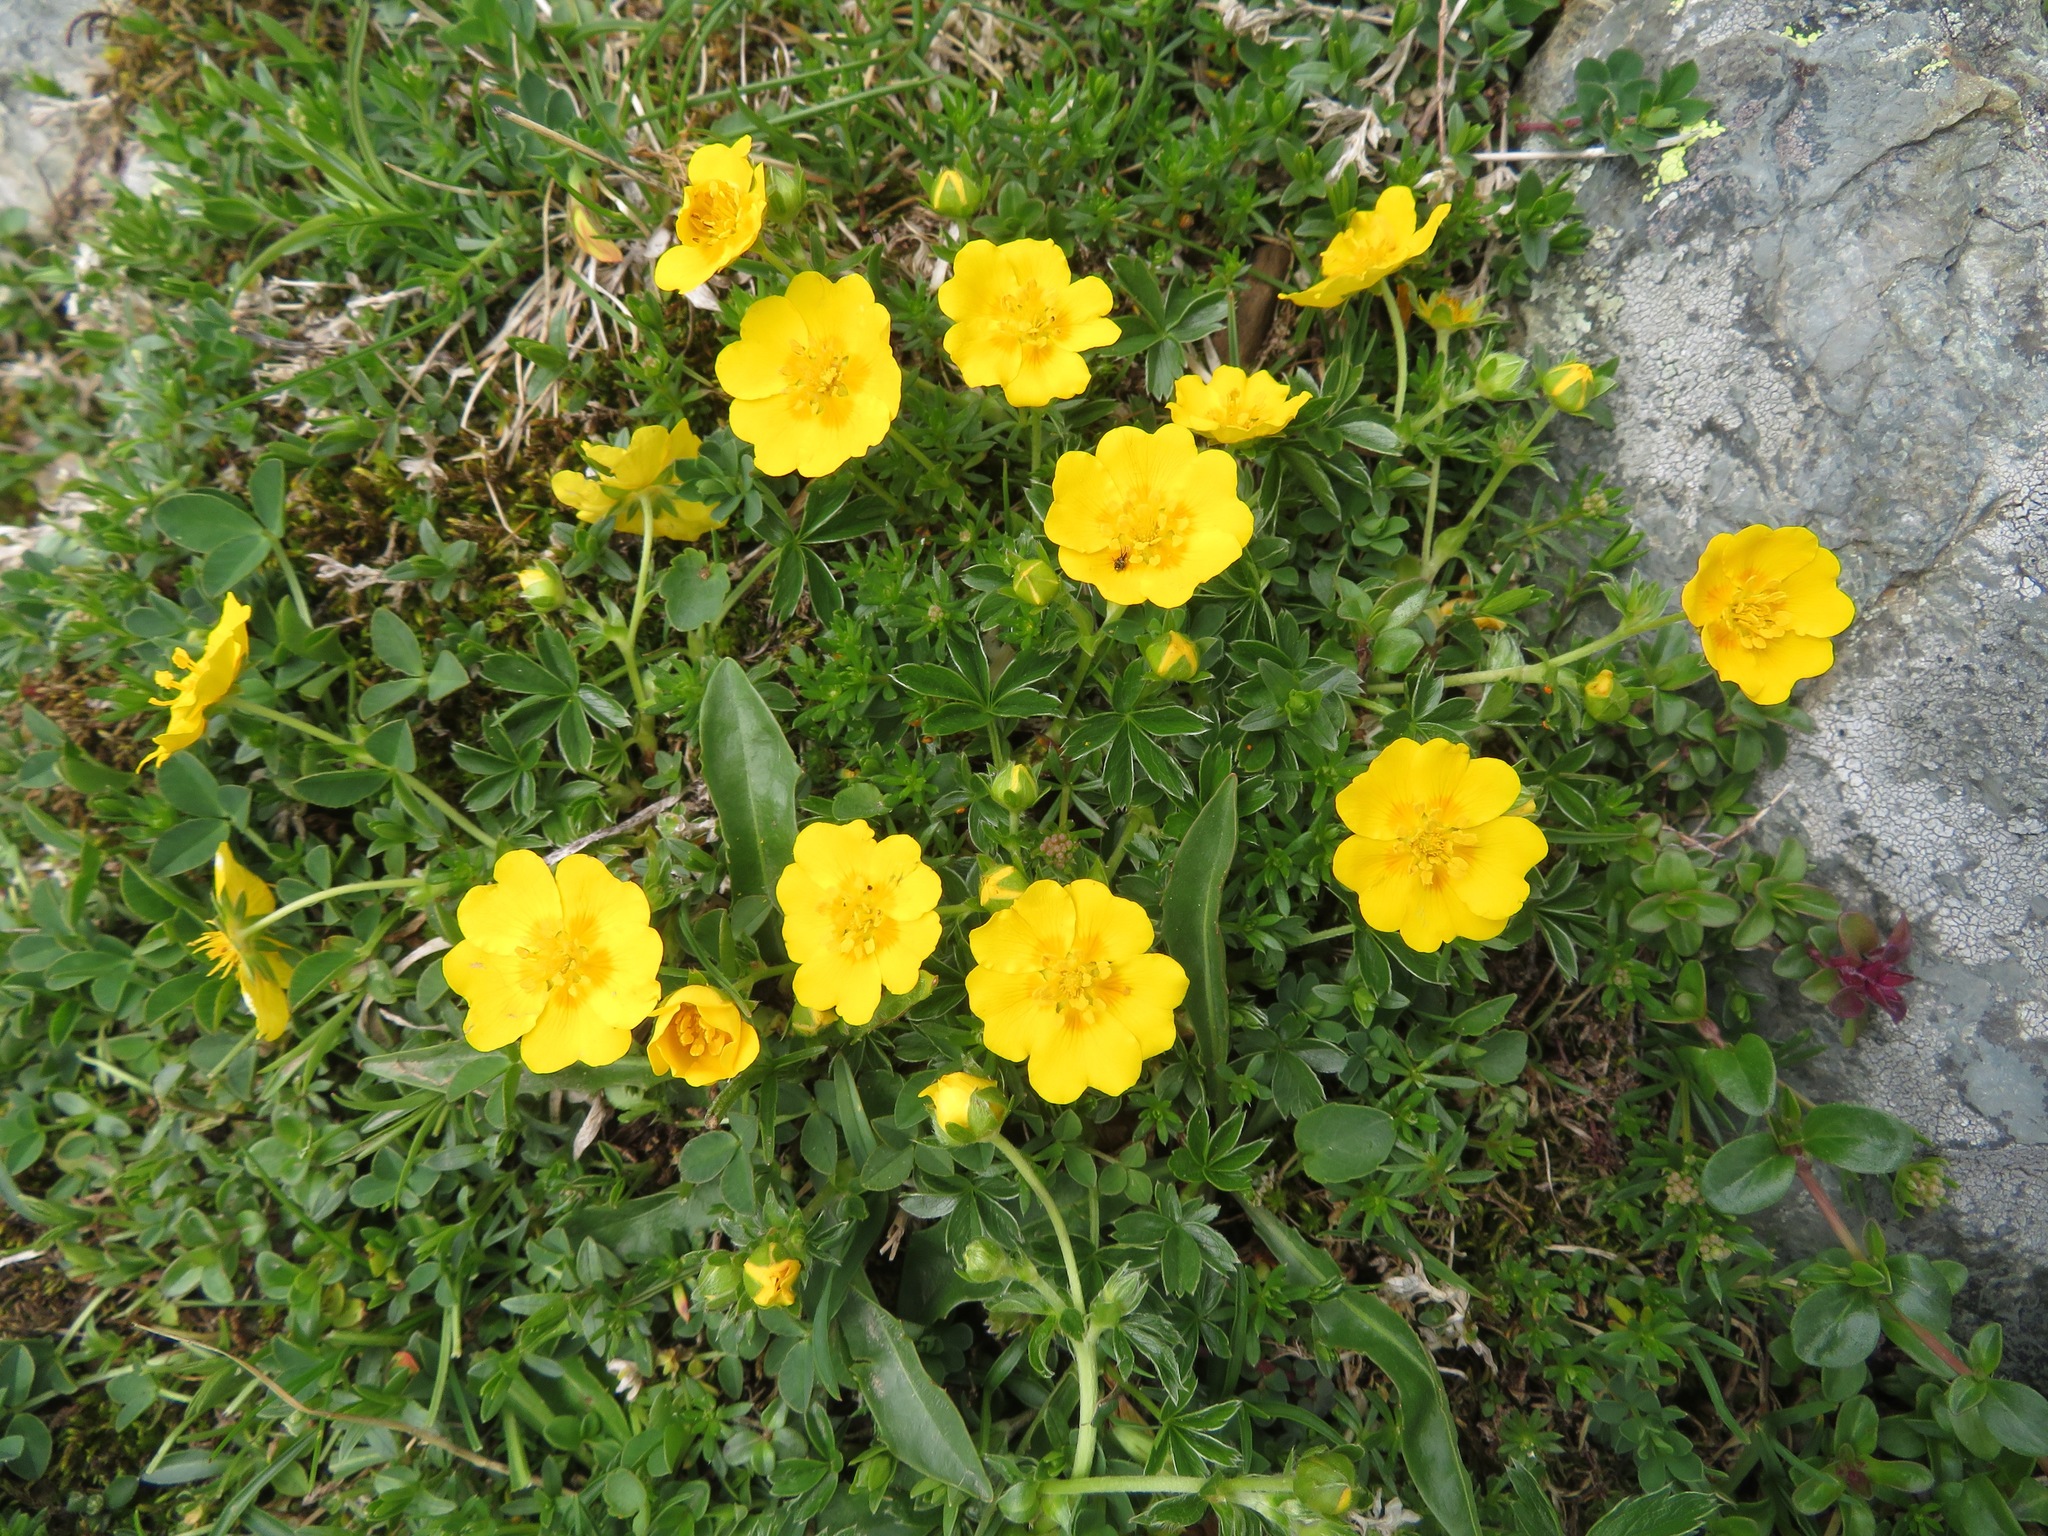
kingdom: Plantae
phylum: Tracheophyta
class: Magnoliopsida
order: Rosales
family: Rosaceae
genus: Potentilla
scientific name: Potentilla aurea
